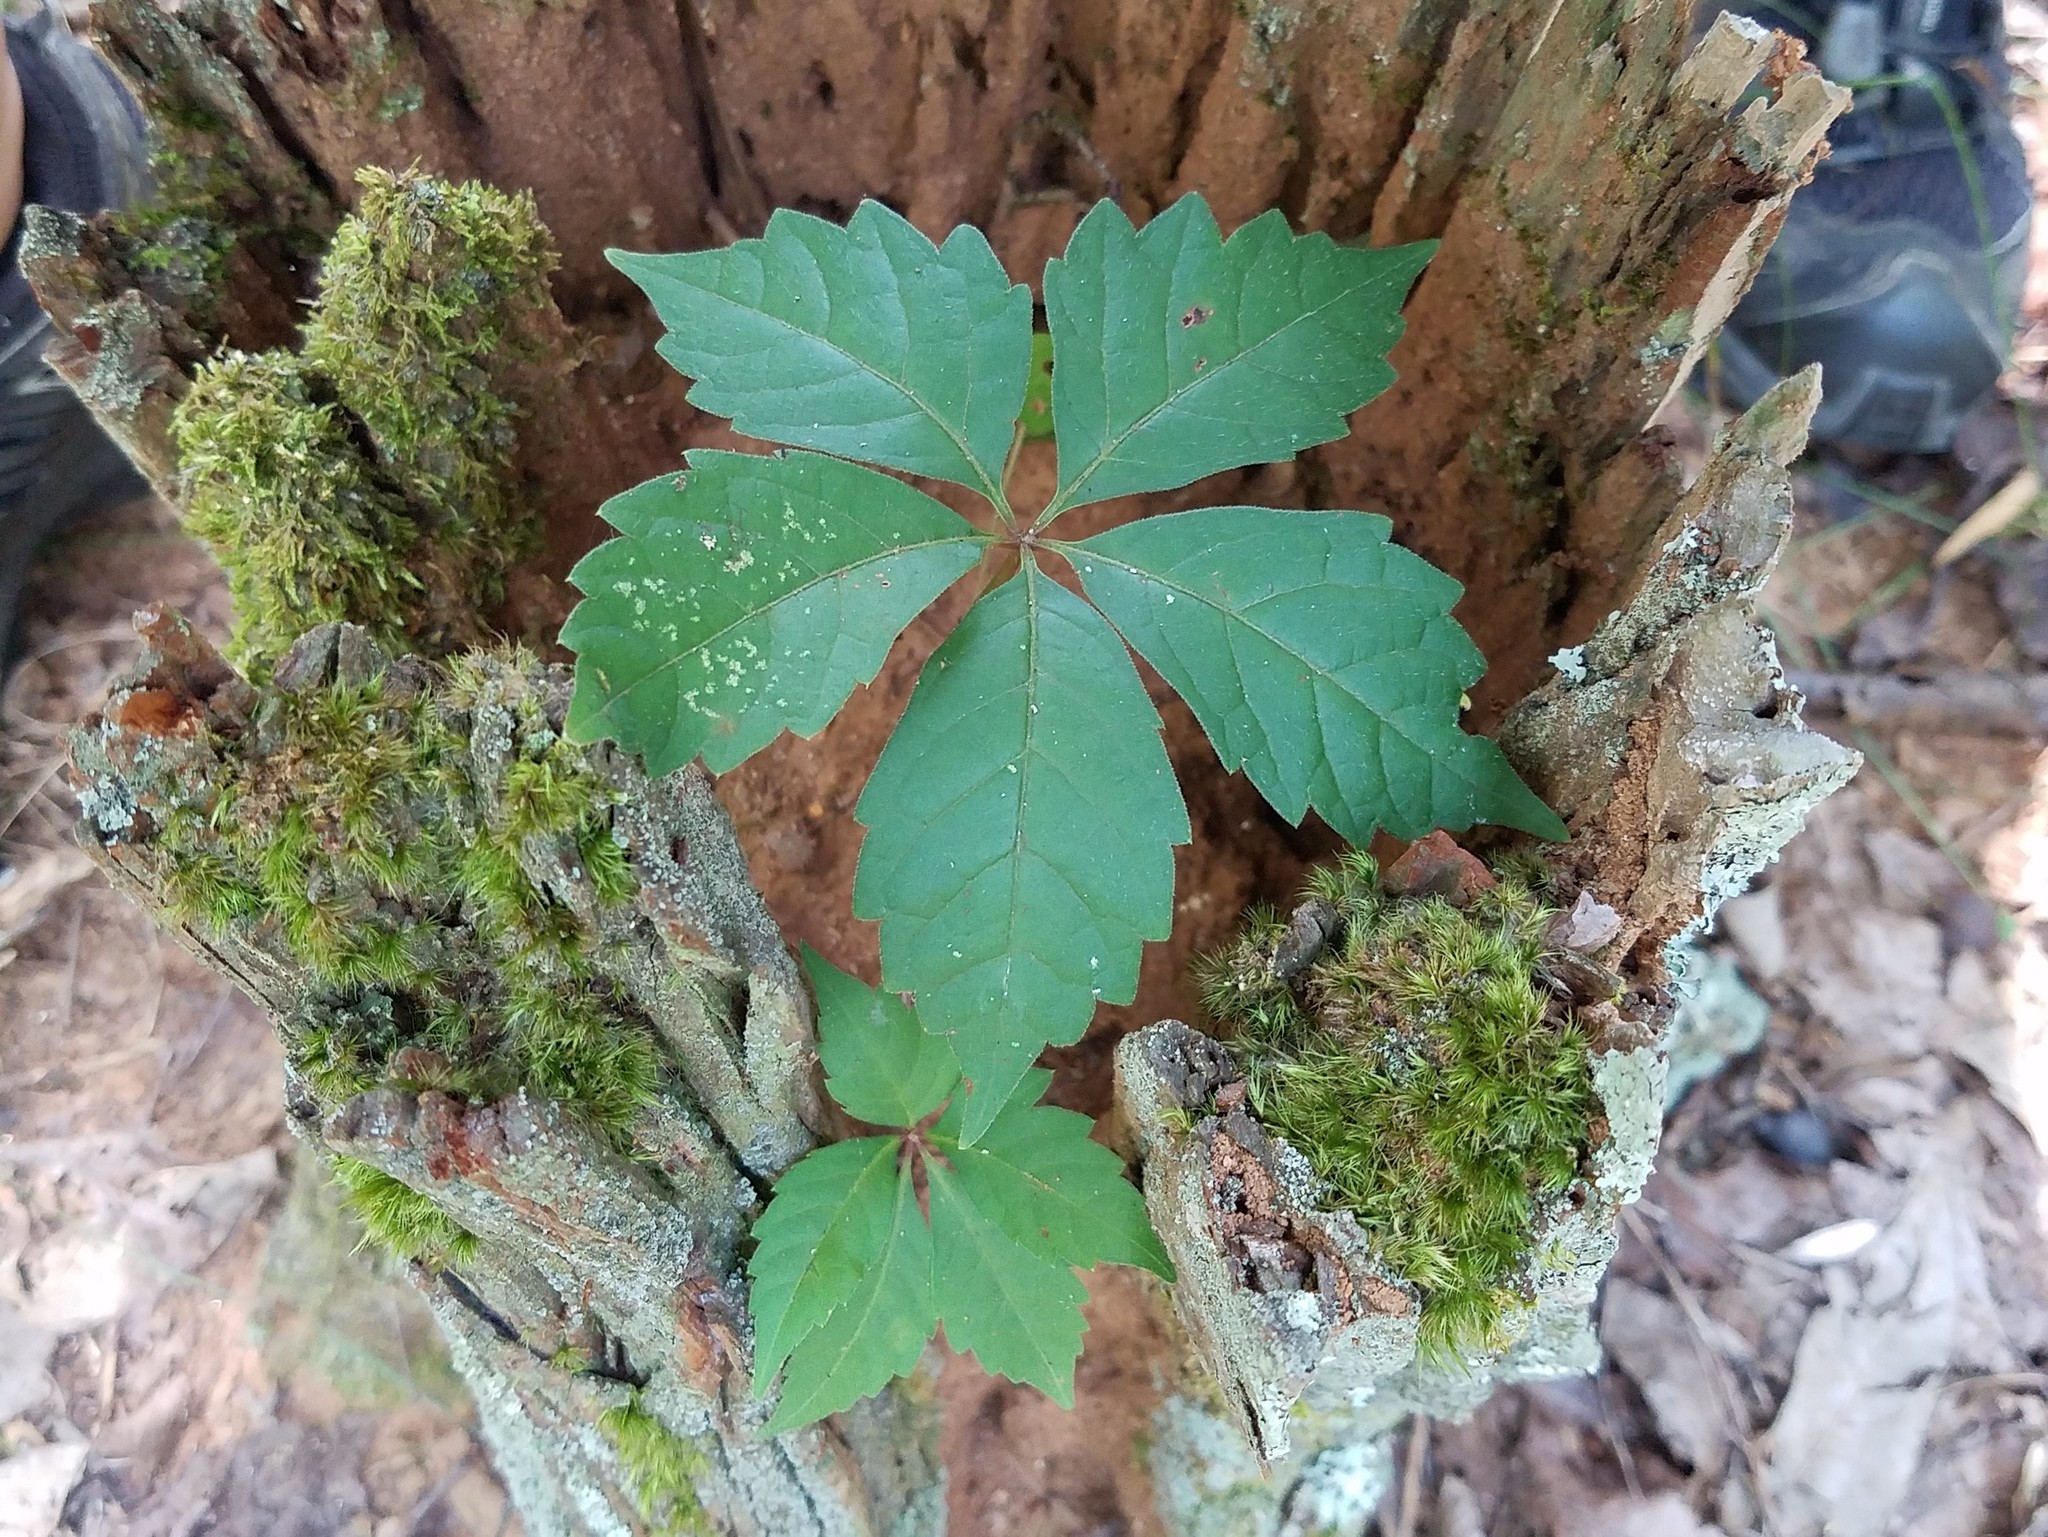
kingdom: Plantae
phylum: Tracheophyta
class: Magnoliopsida
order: Vitales
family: Vitaceae
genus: Parthenocissus
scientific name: Parthenocissus quinquefolia
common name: Virginia-creeper
